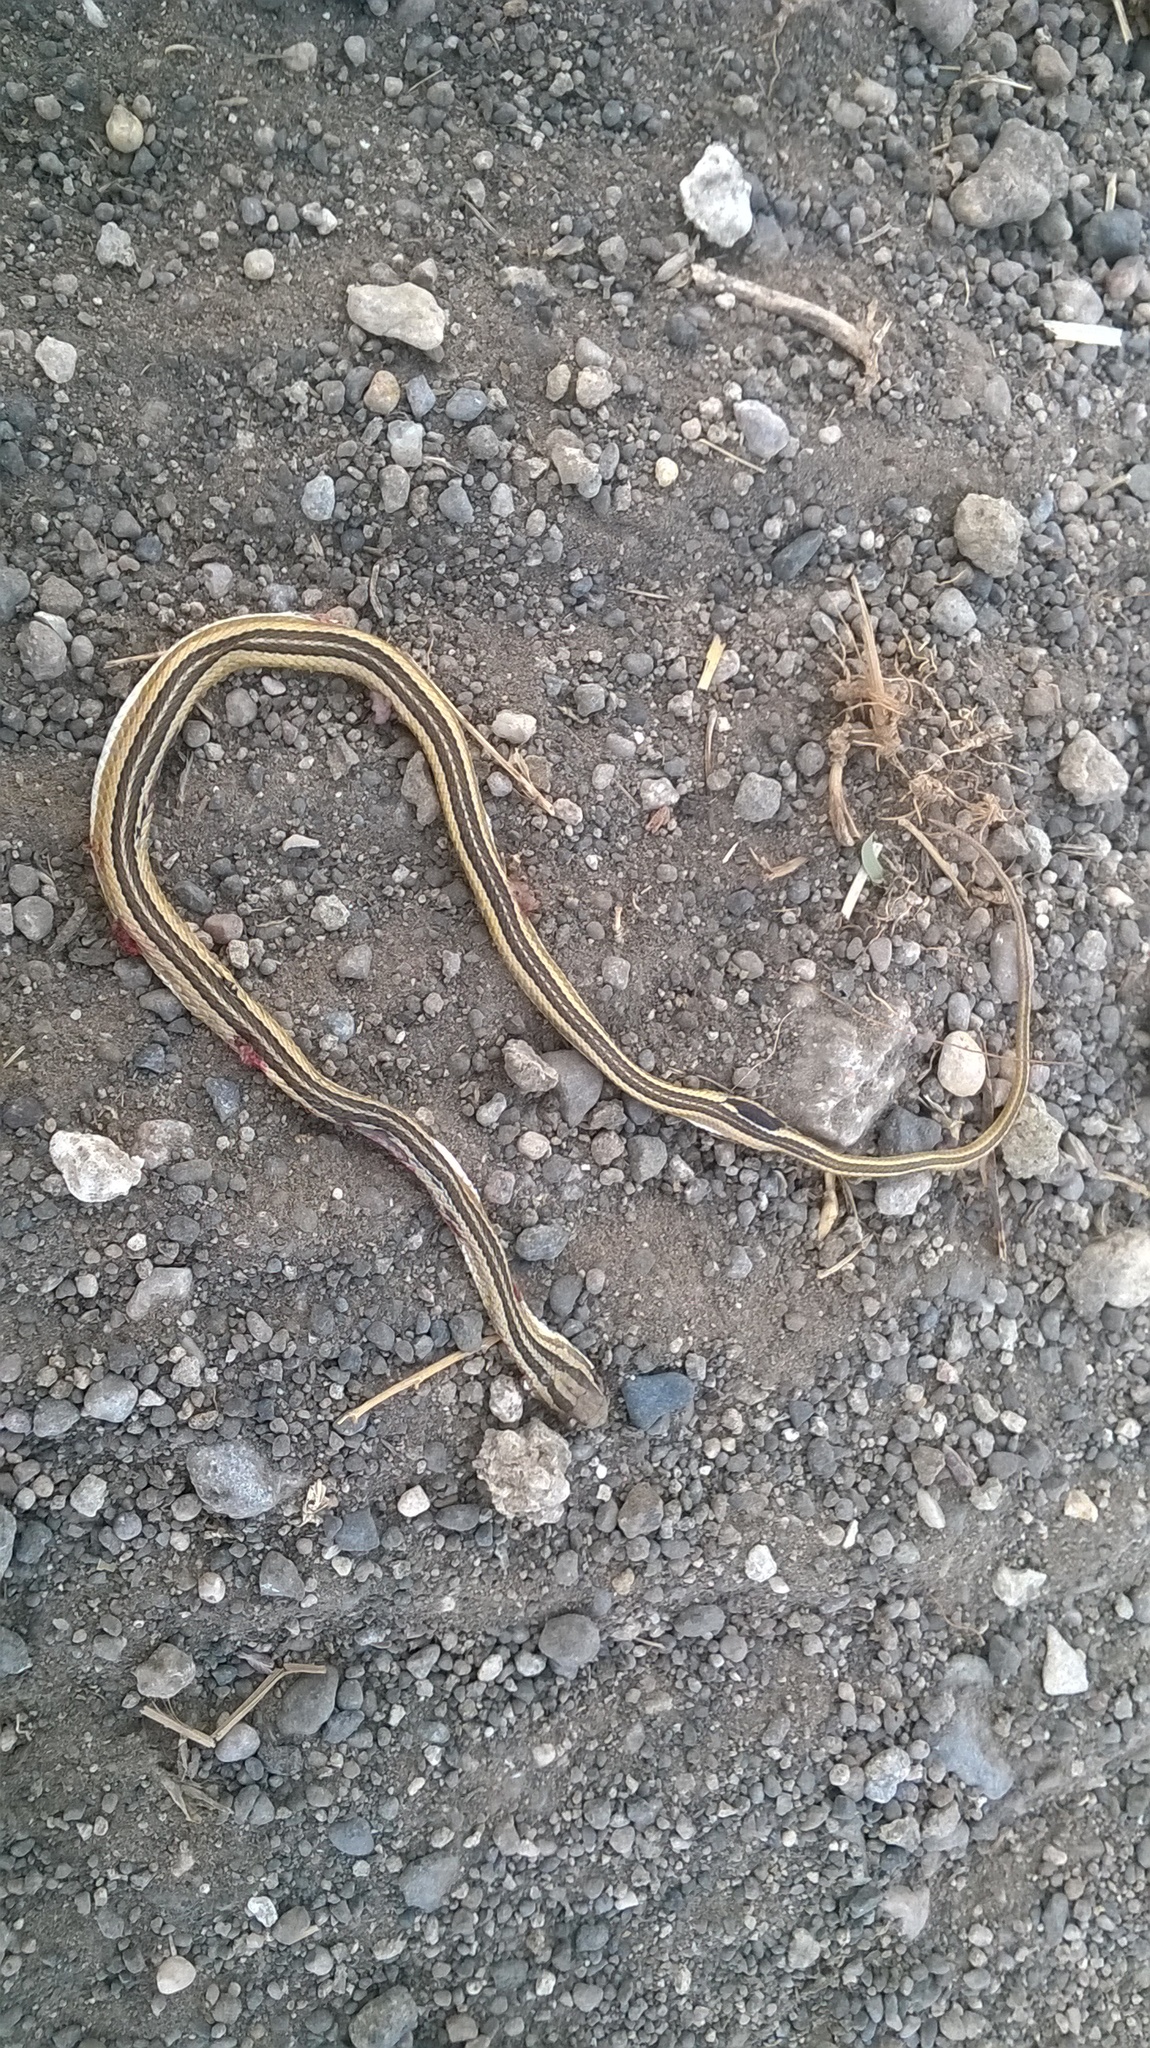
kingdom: Animalia
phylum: Chordata
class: Squamata
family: Psammophiidae
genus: Psammophis
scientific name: Psammophis leithii
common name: Leith's sand snake
